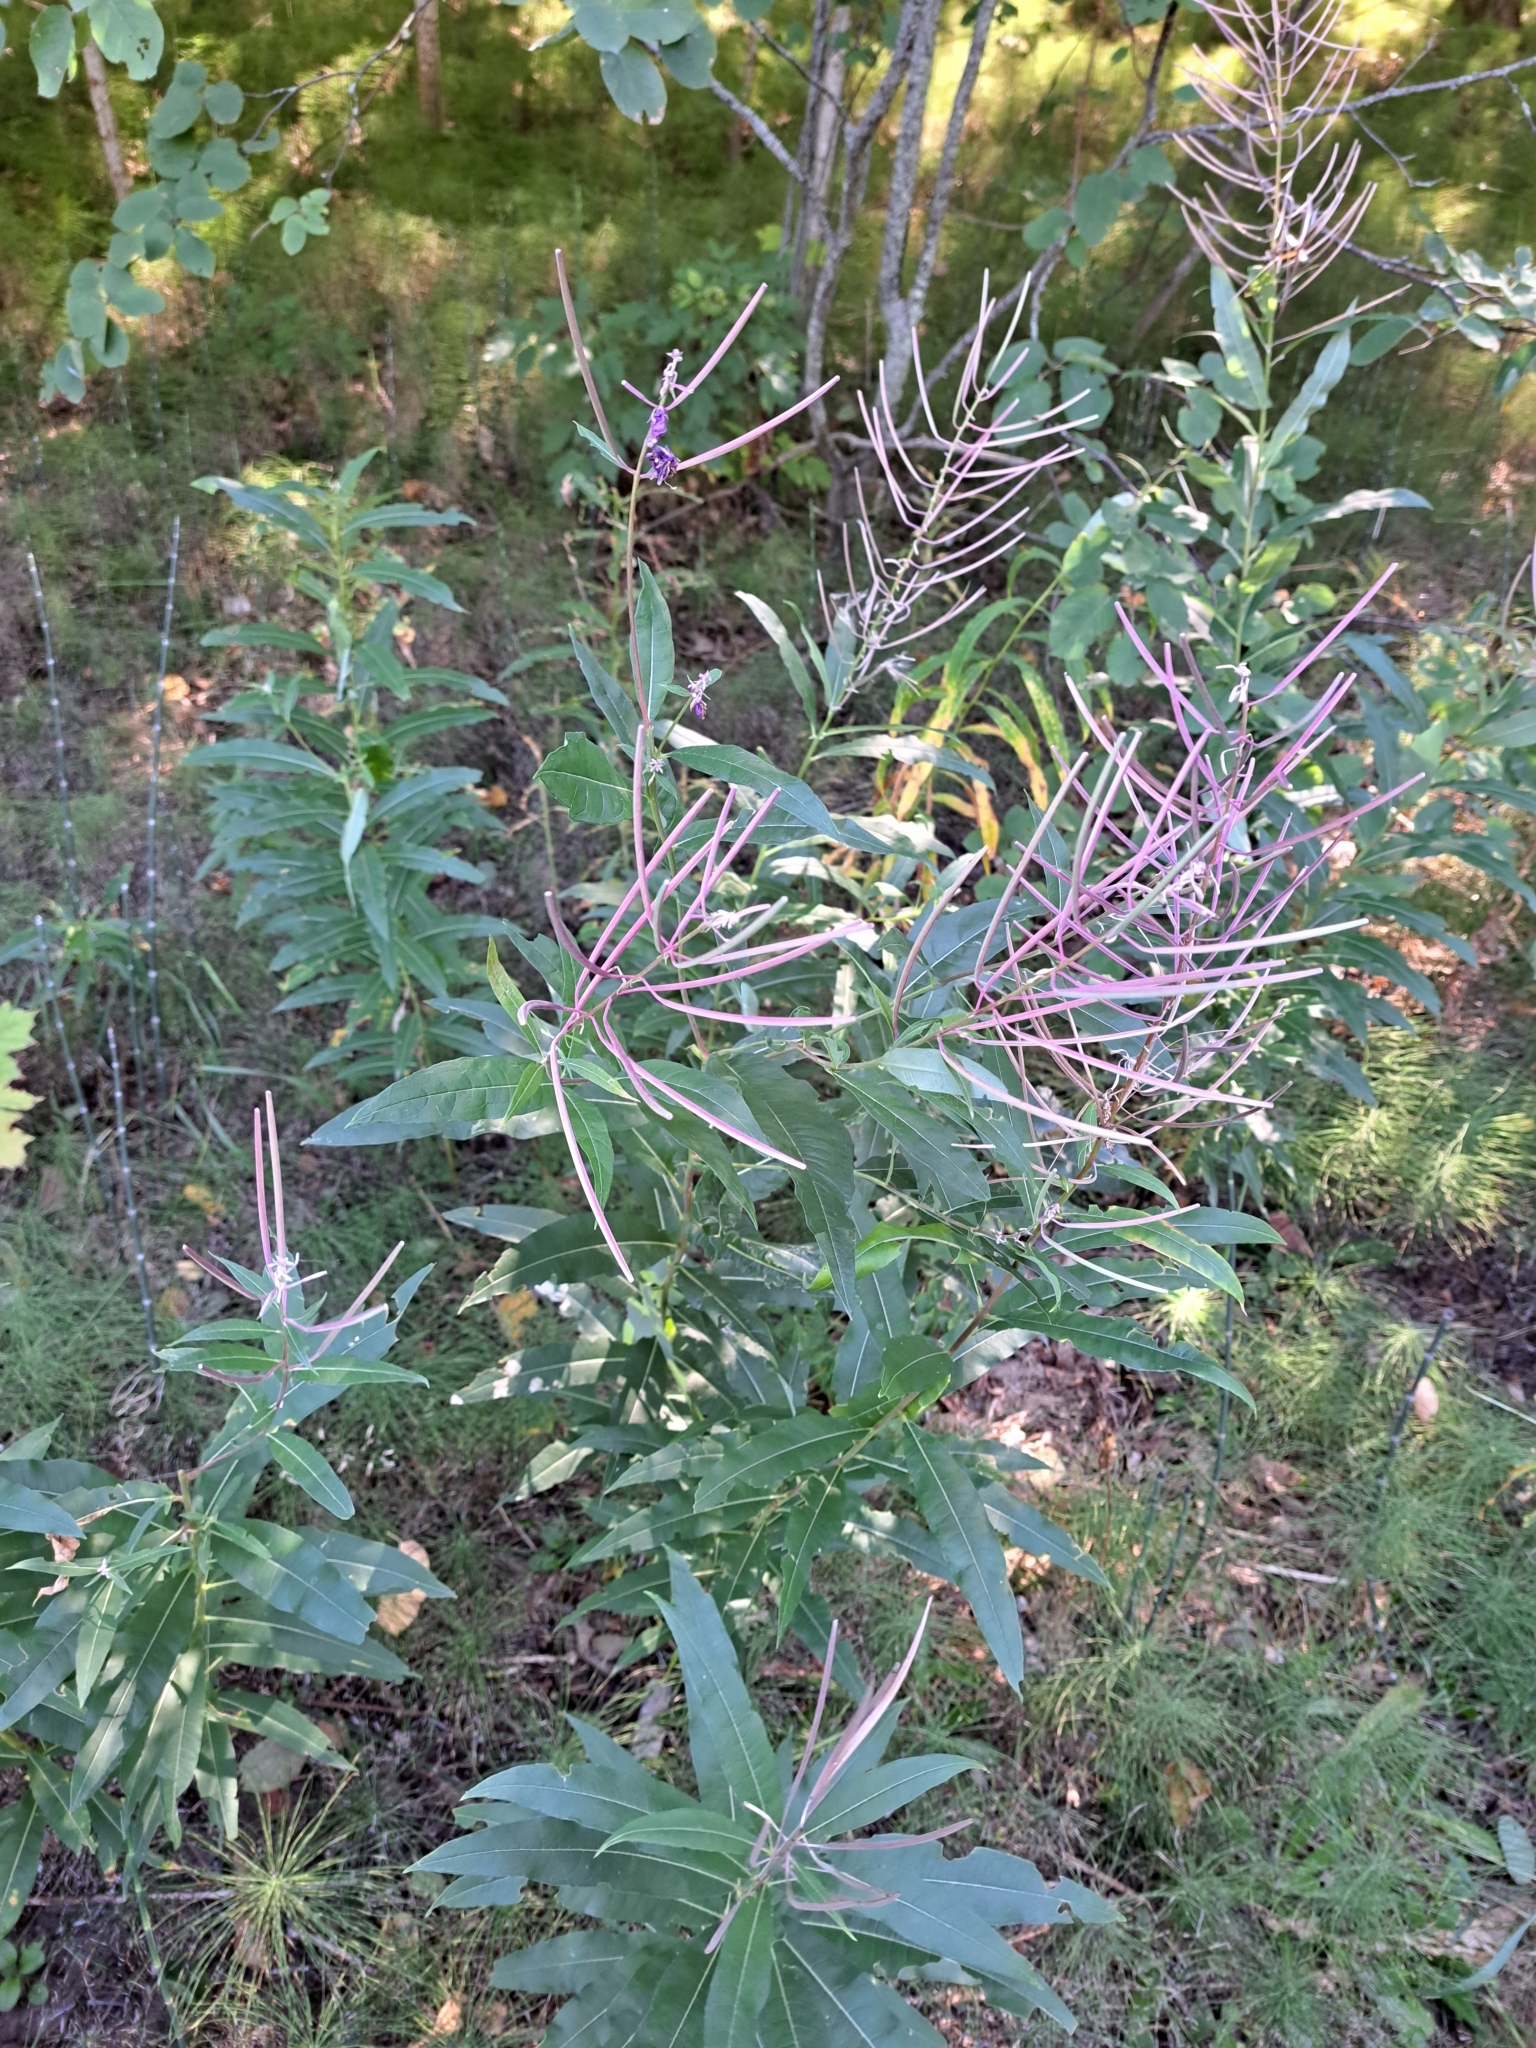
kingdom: Plantae
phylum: Tracheophyta
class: Magnoliopsida
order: Myrtales
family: Onagraceae
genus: Chamaenerion
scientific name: Chamaenerion angustifolium
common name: Fireweed
